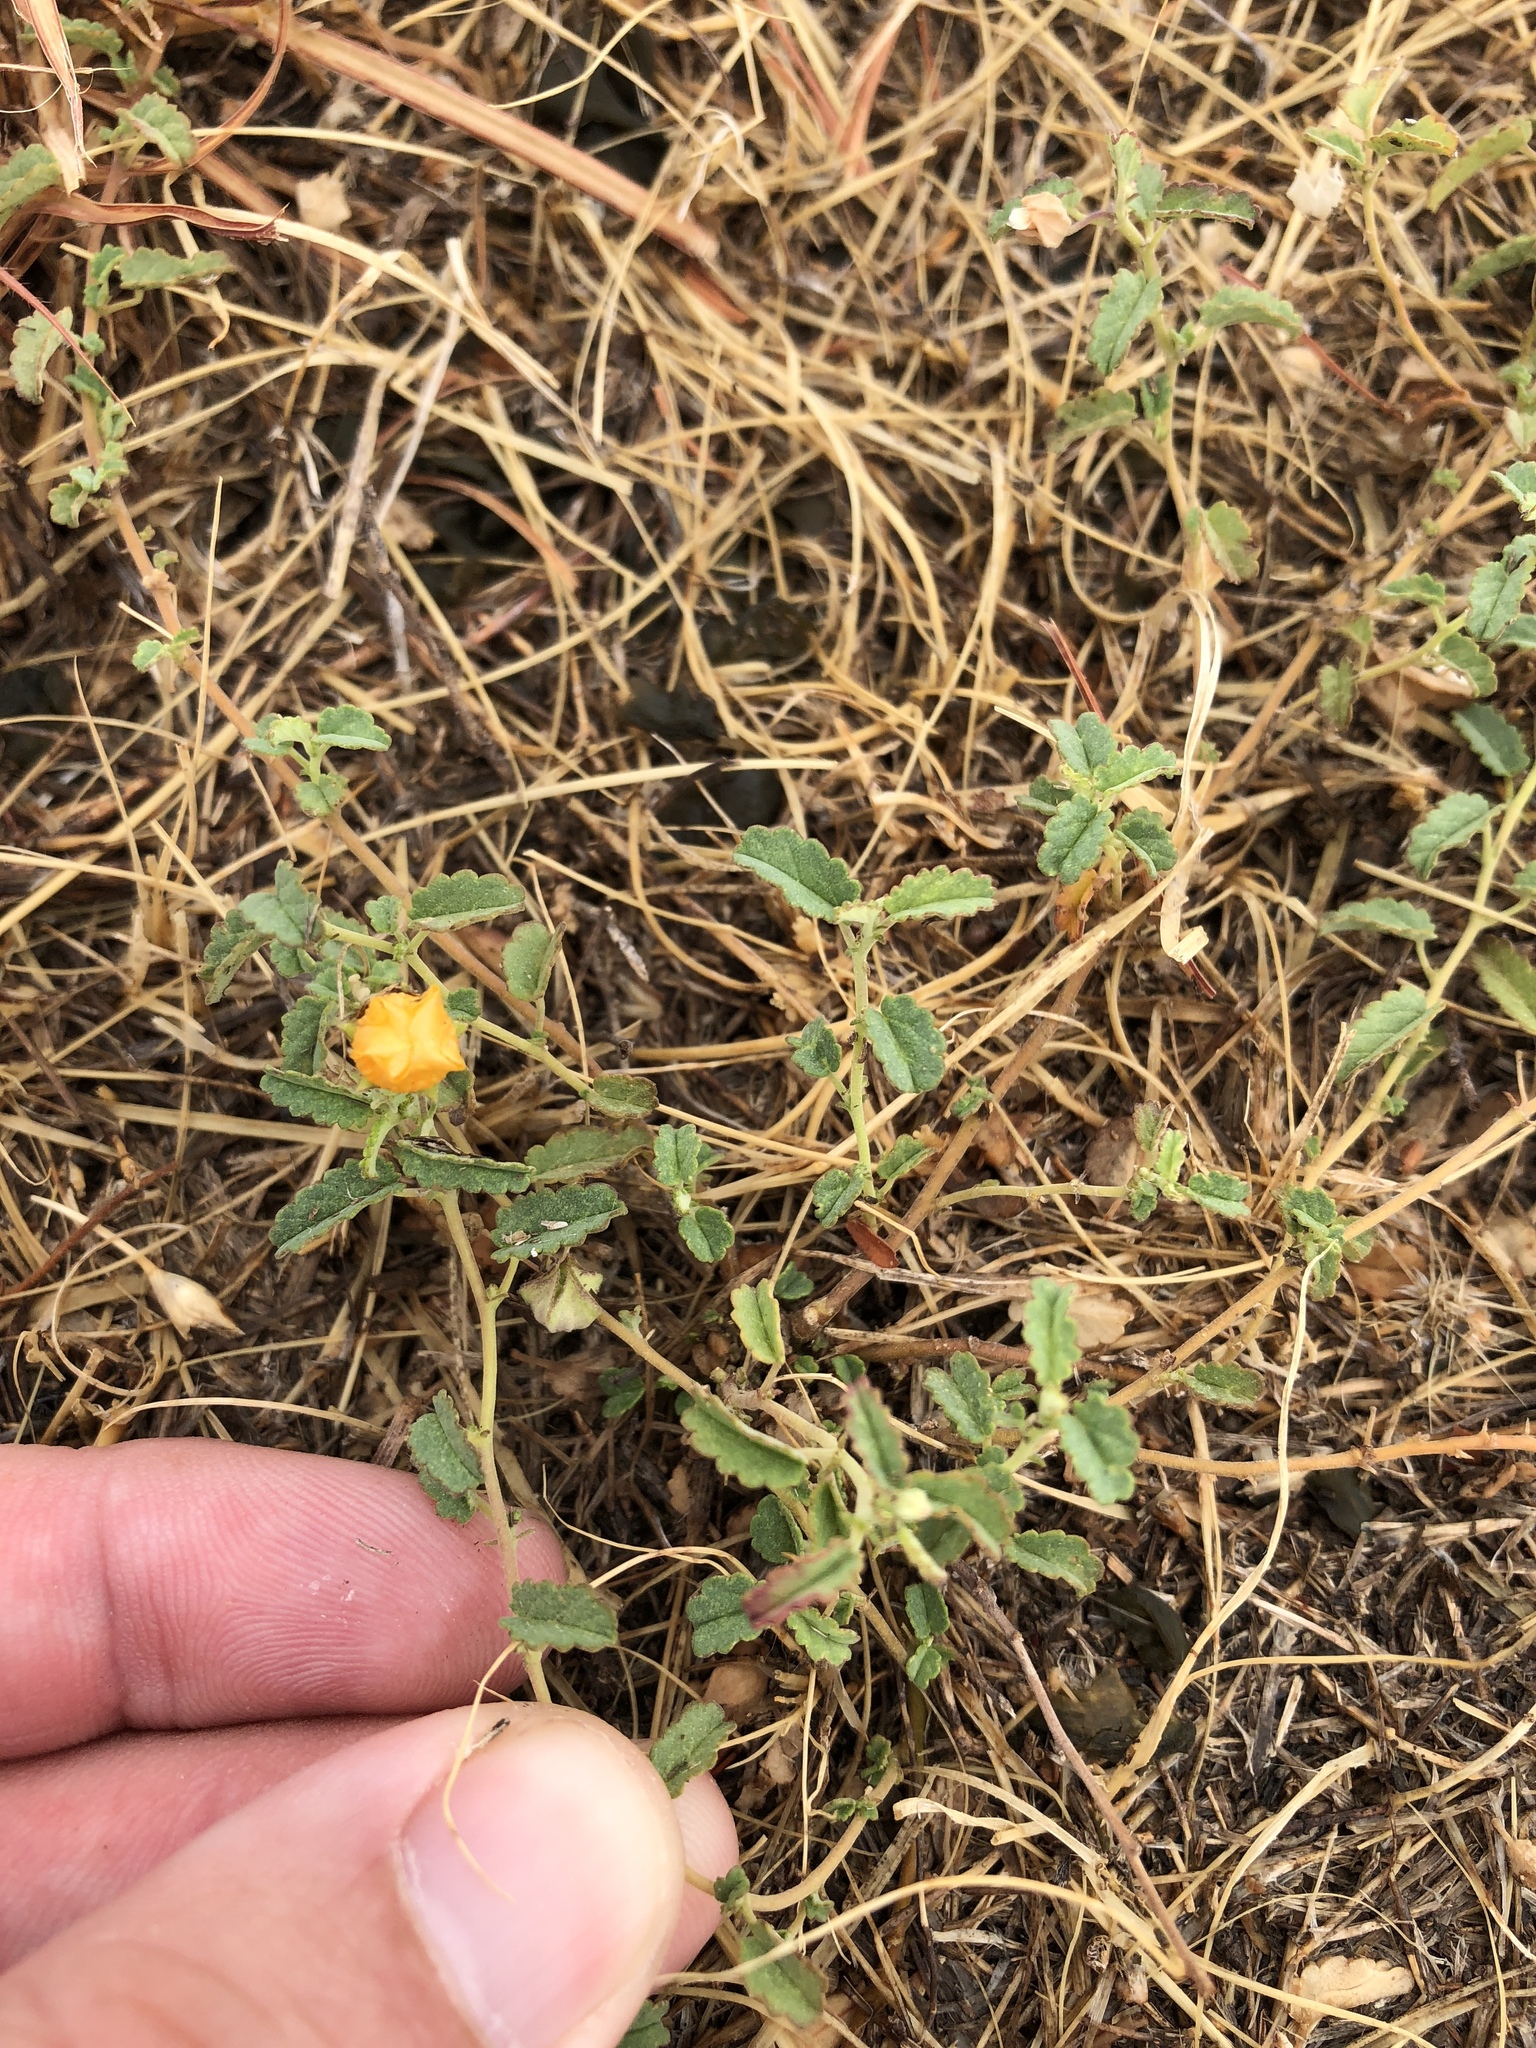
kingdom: Plantae
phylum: Tracheophyta
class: Magnoliopsida
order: Malvales
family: Malvaceae
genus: Sida
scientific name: Sida abutilifolia
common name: Spreading fanpetals
